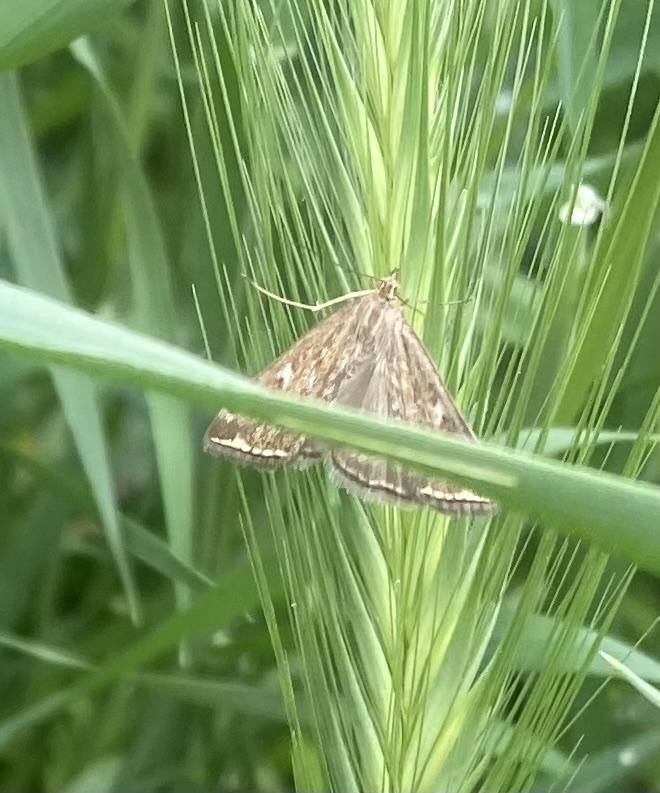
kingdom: Animalia
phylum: Arthropoda
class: Insecta
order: Lepidoptera
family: Crambidae
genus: Loxostege
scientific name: Loxostege sticticalis
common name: Crambid moth
